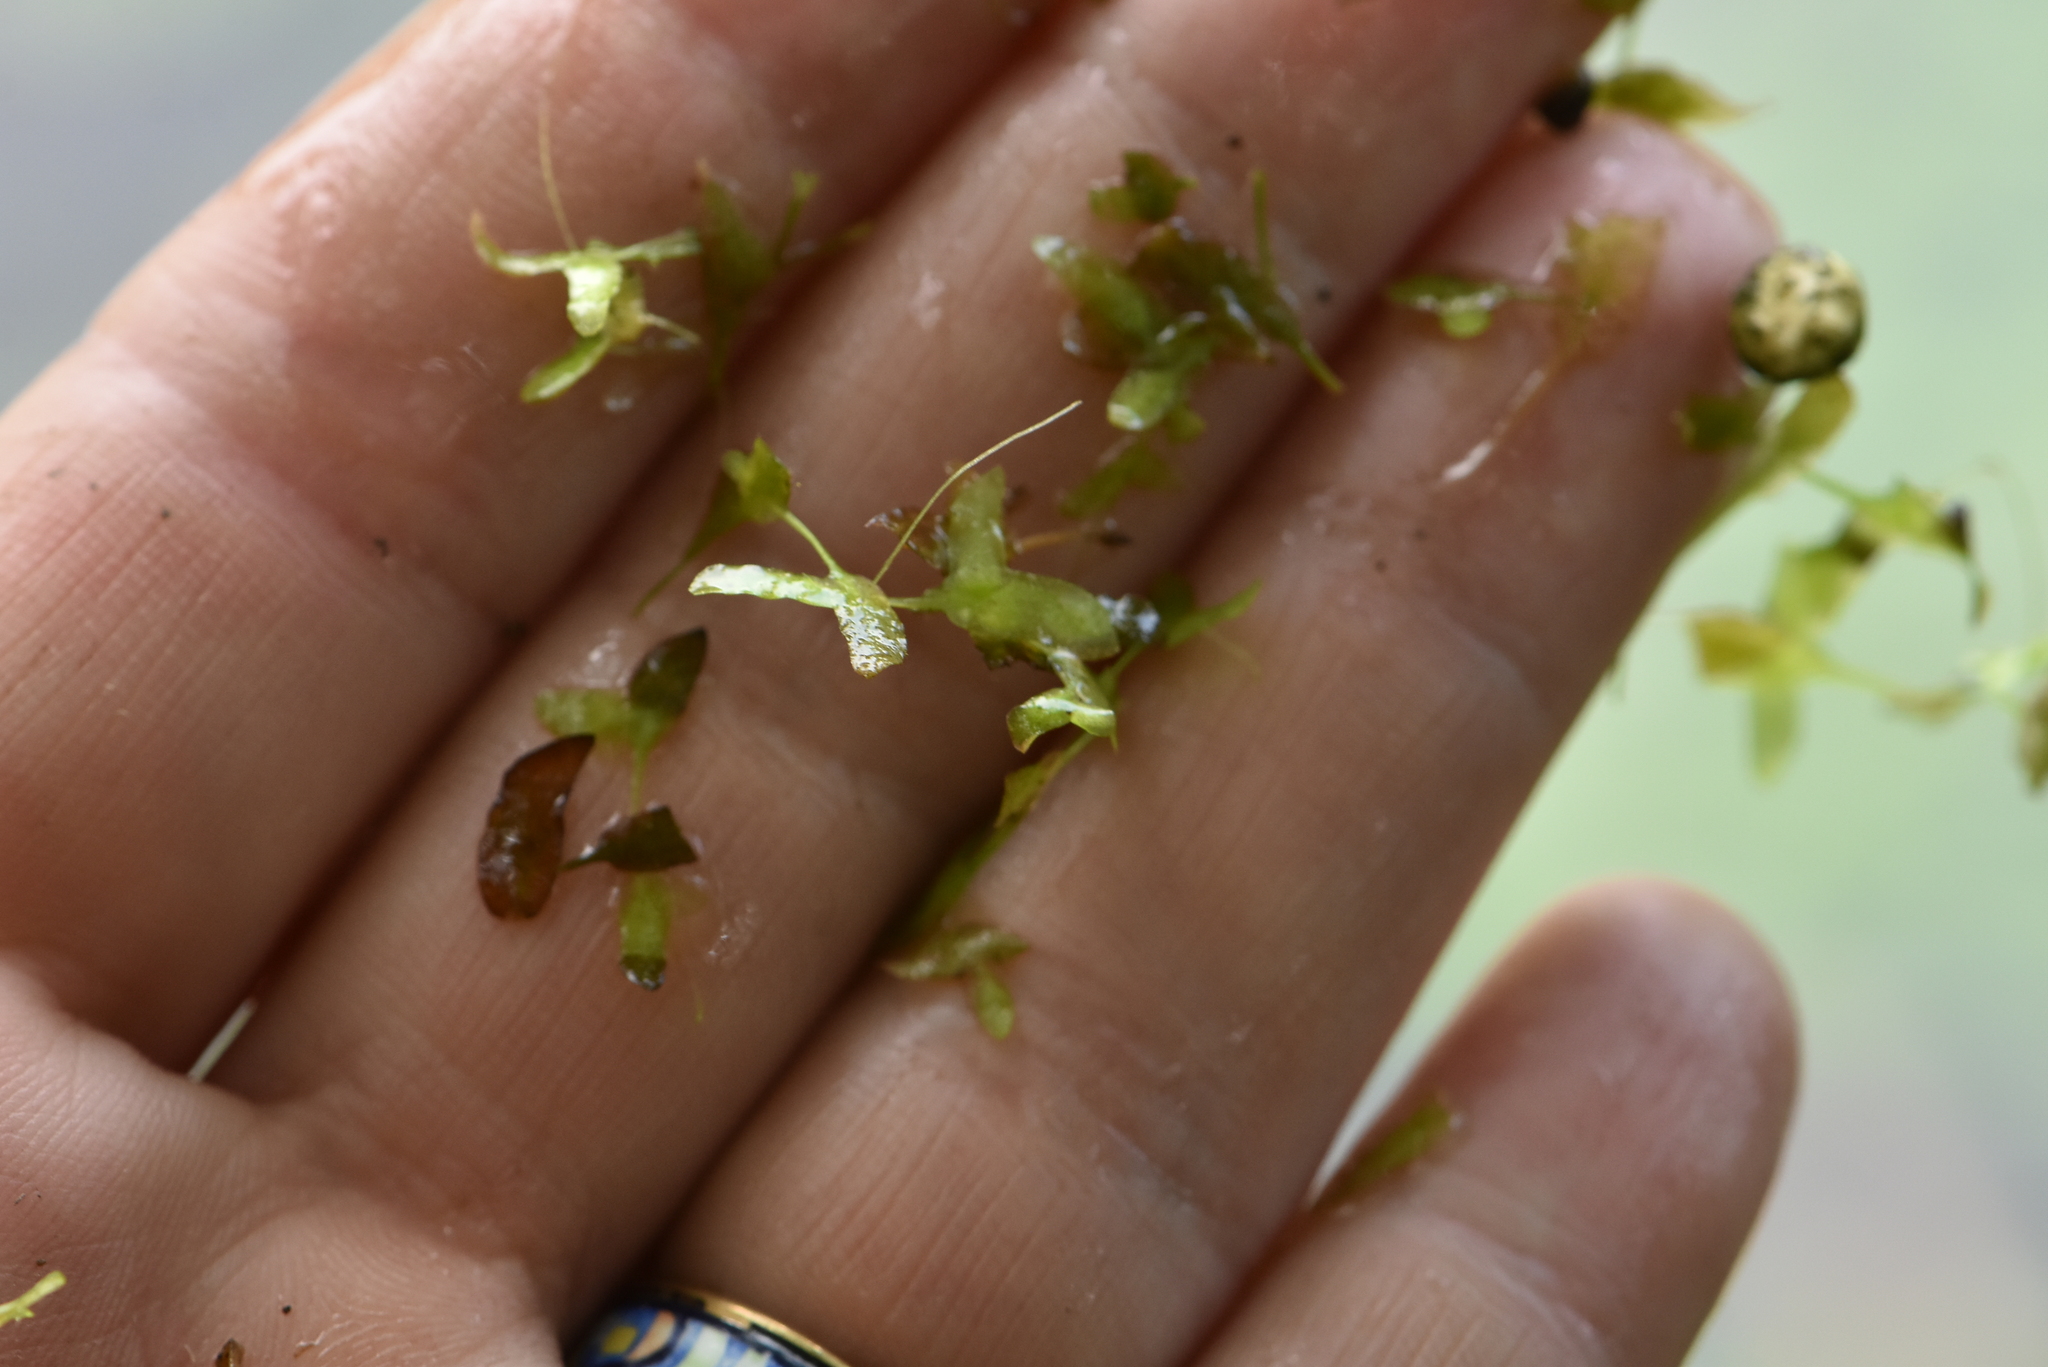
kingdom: Plantae
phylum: Tracheophyta
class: Liliopsida
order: Alismatales
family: Araceae
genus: Lemna
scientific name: Lemna trisulca
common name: Ivy-leaved duckweed
